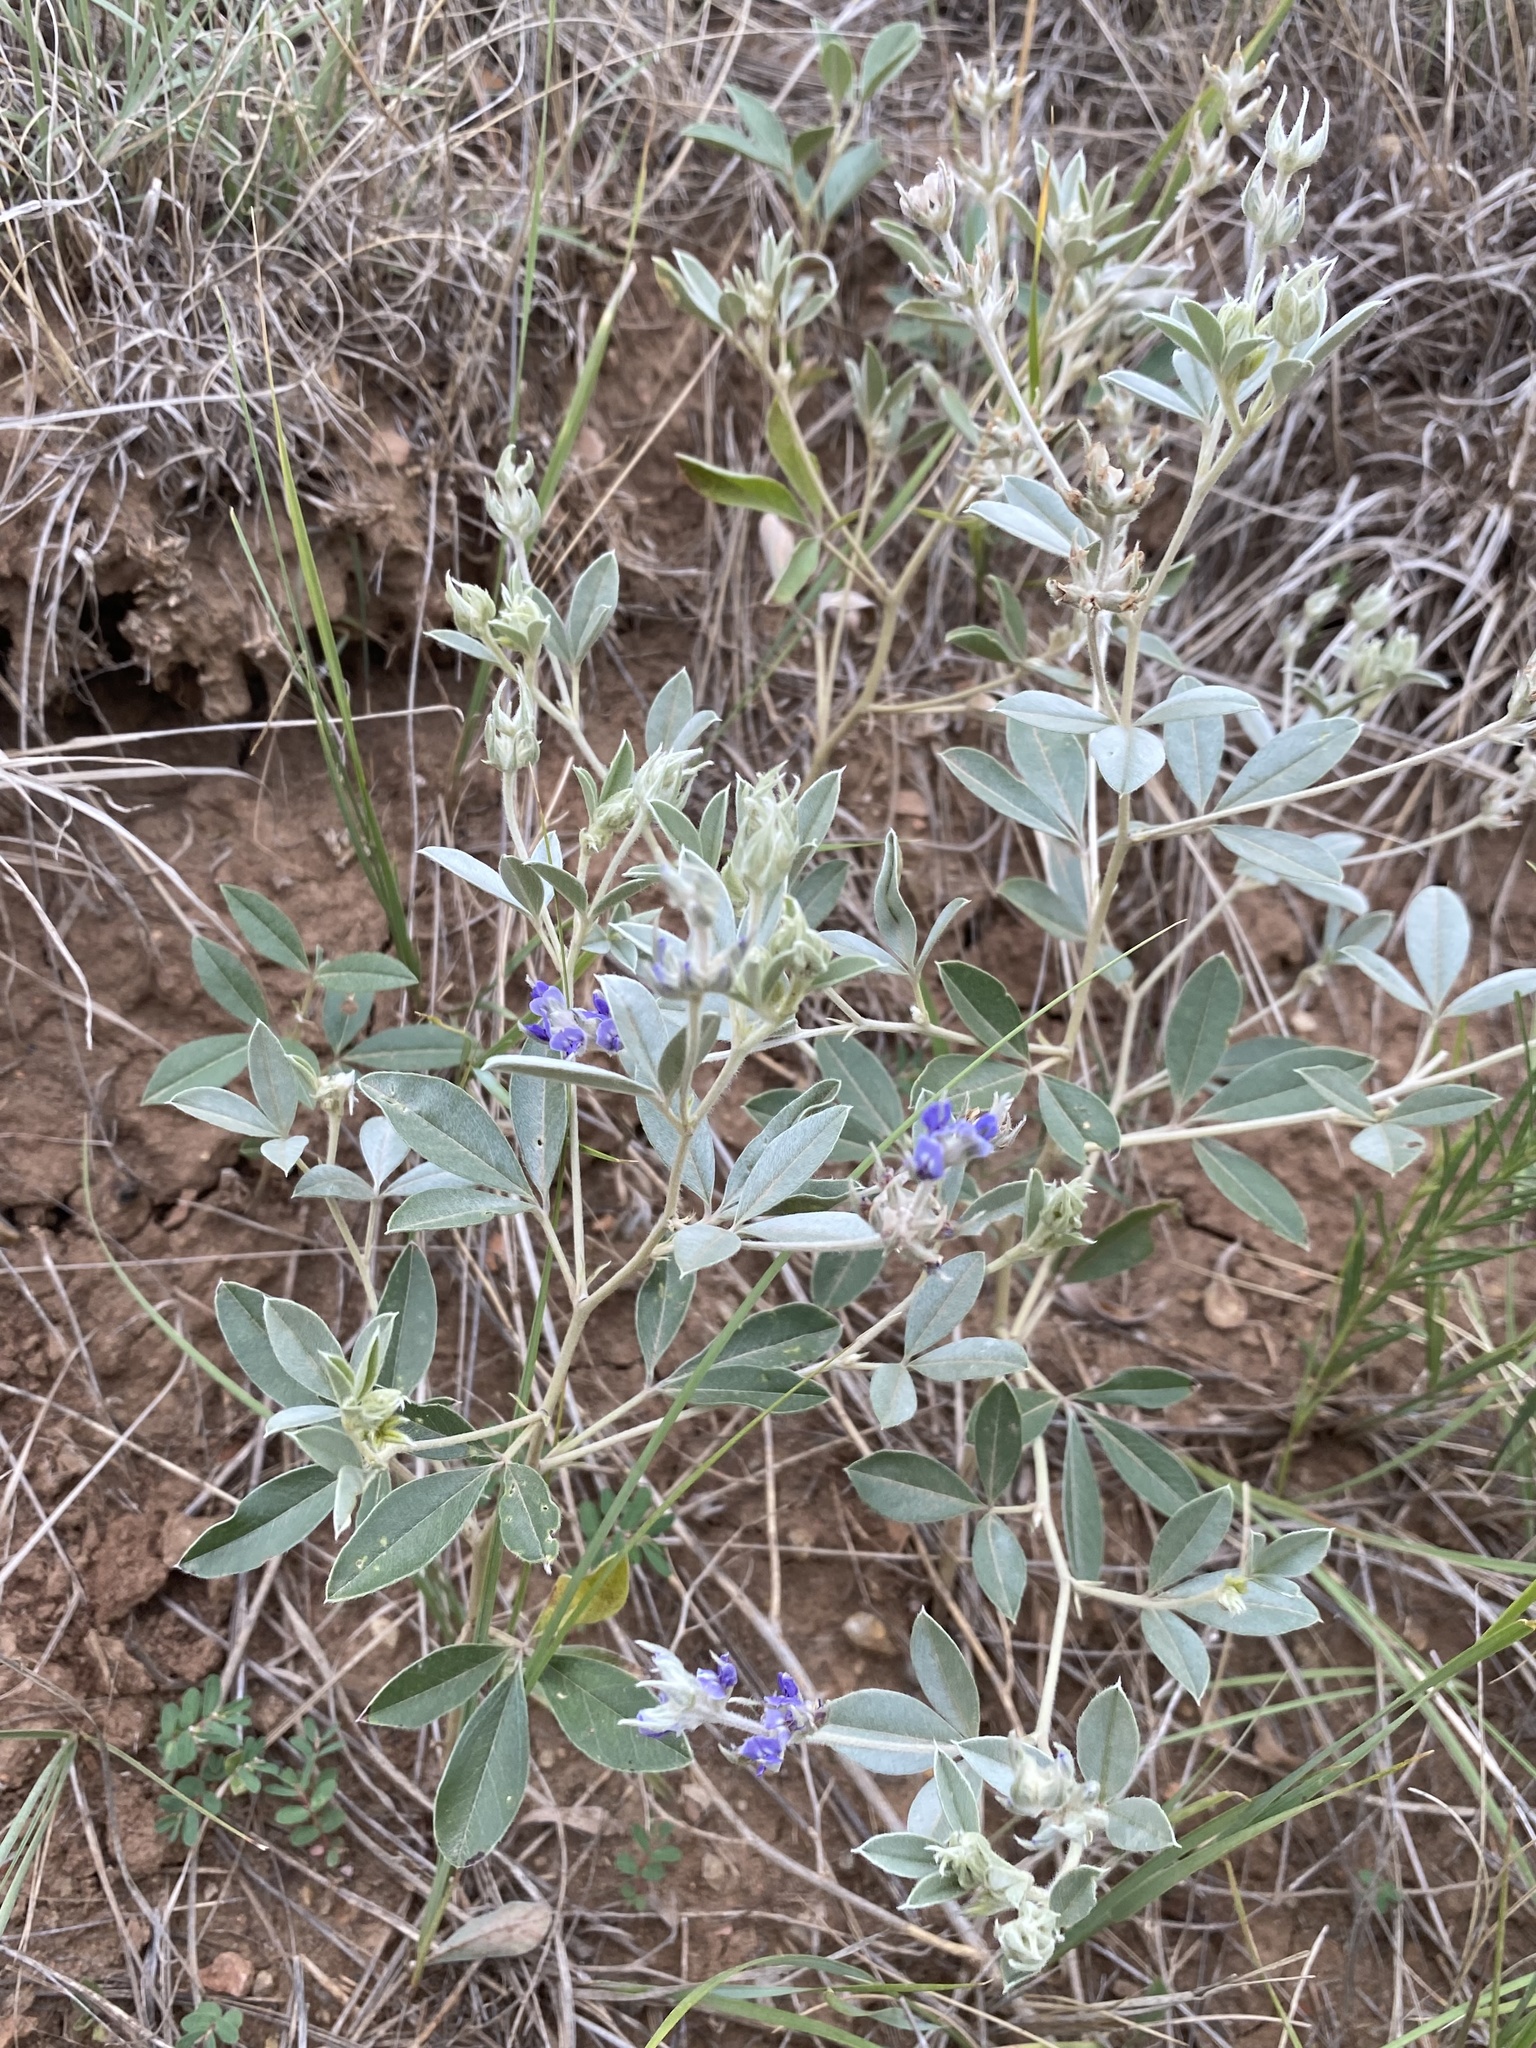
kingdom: Plantae
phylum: Tracheophyta
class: Magnoliopsida
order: Fabales
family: Fabaceae
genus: Pediomelum
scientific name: Pediomelum argophyllum
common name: Silver-leaved indian breadroot
